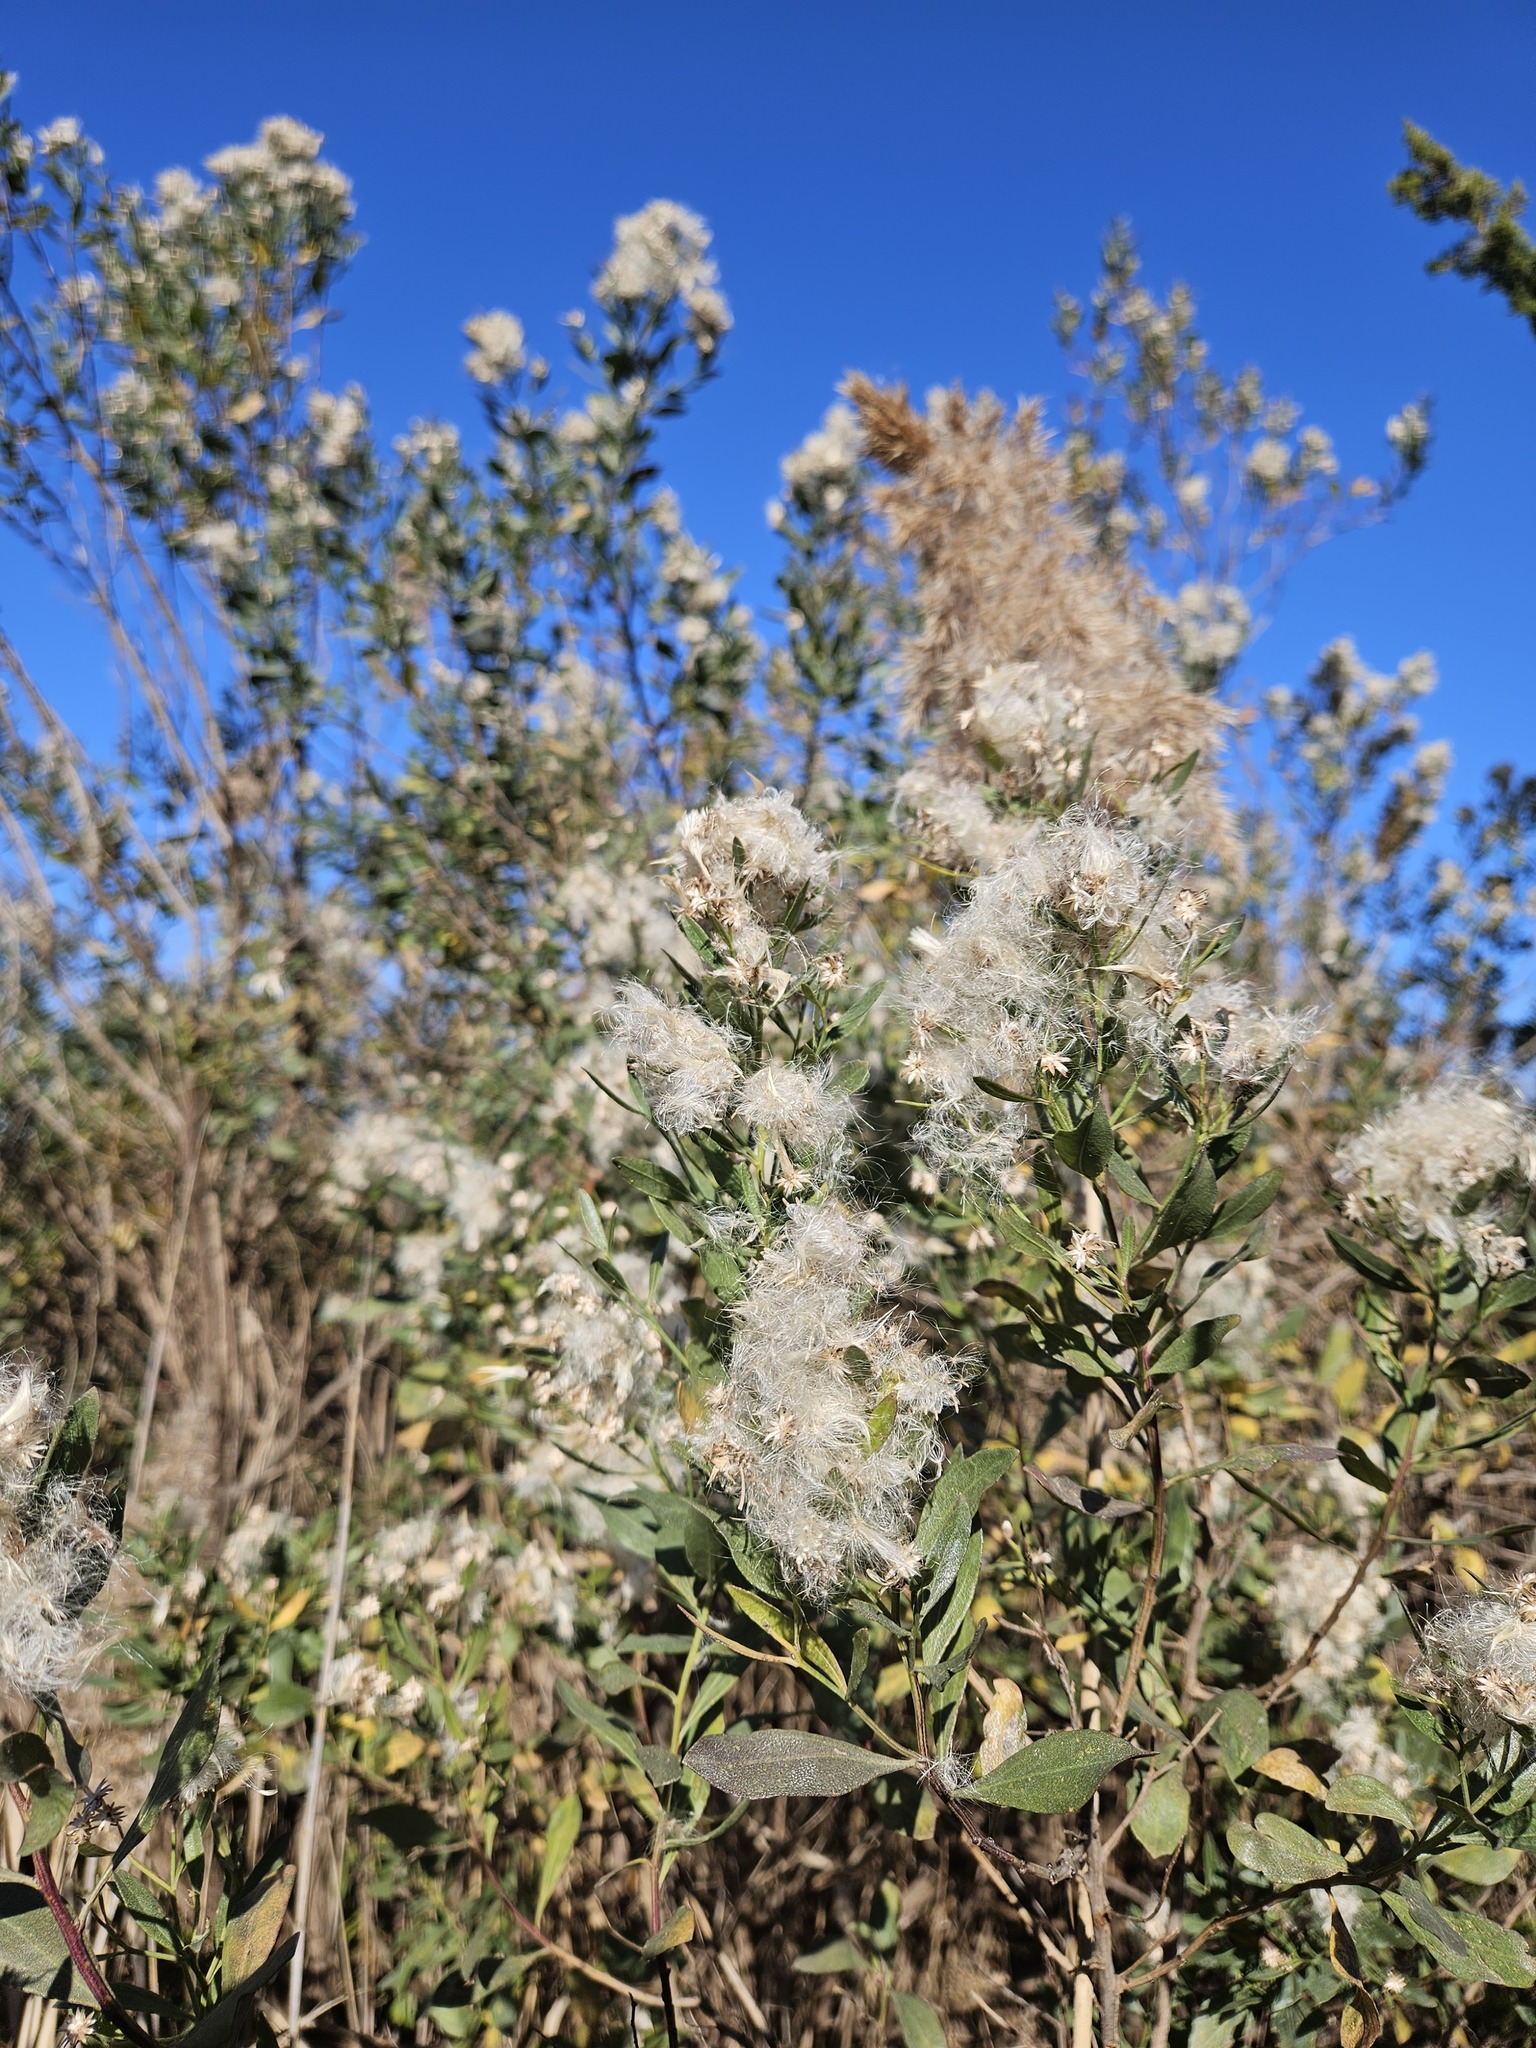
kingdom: Plantae
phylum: Tracheophyta
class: Magnoliopsida
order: Asterales
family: Asteraceae
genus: Baccharis
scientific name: Baccharis halimifolia
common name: Eastern baccharis
